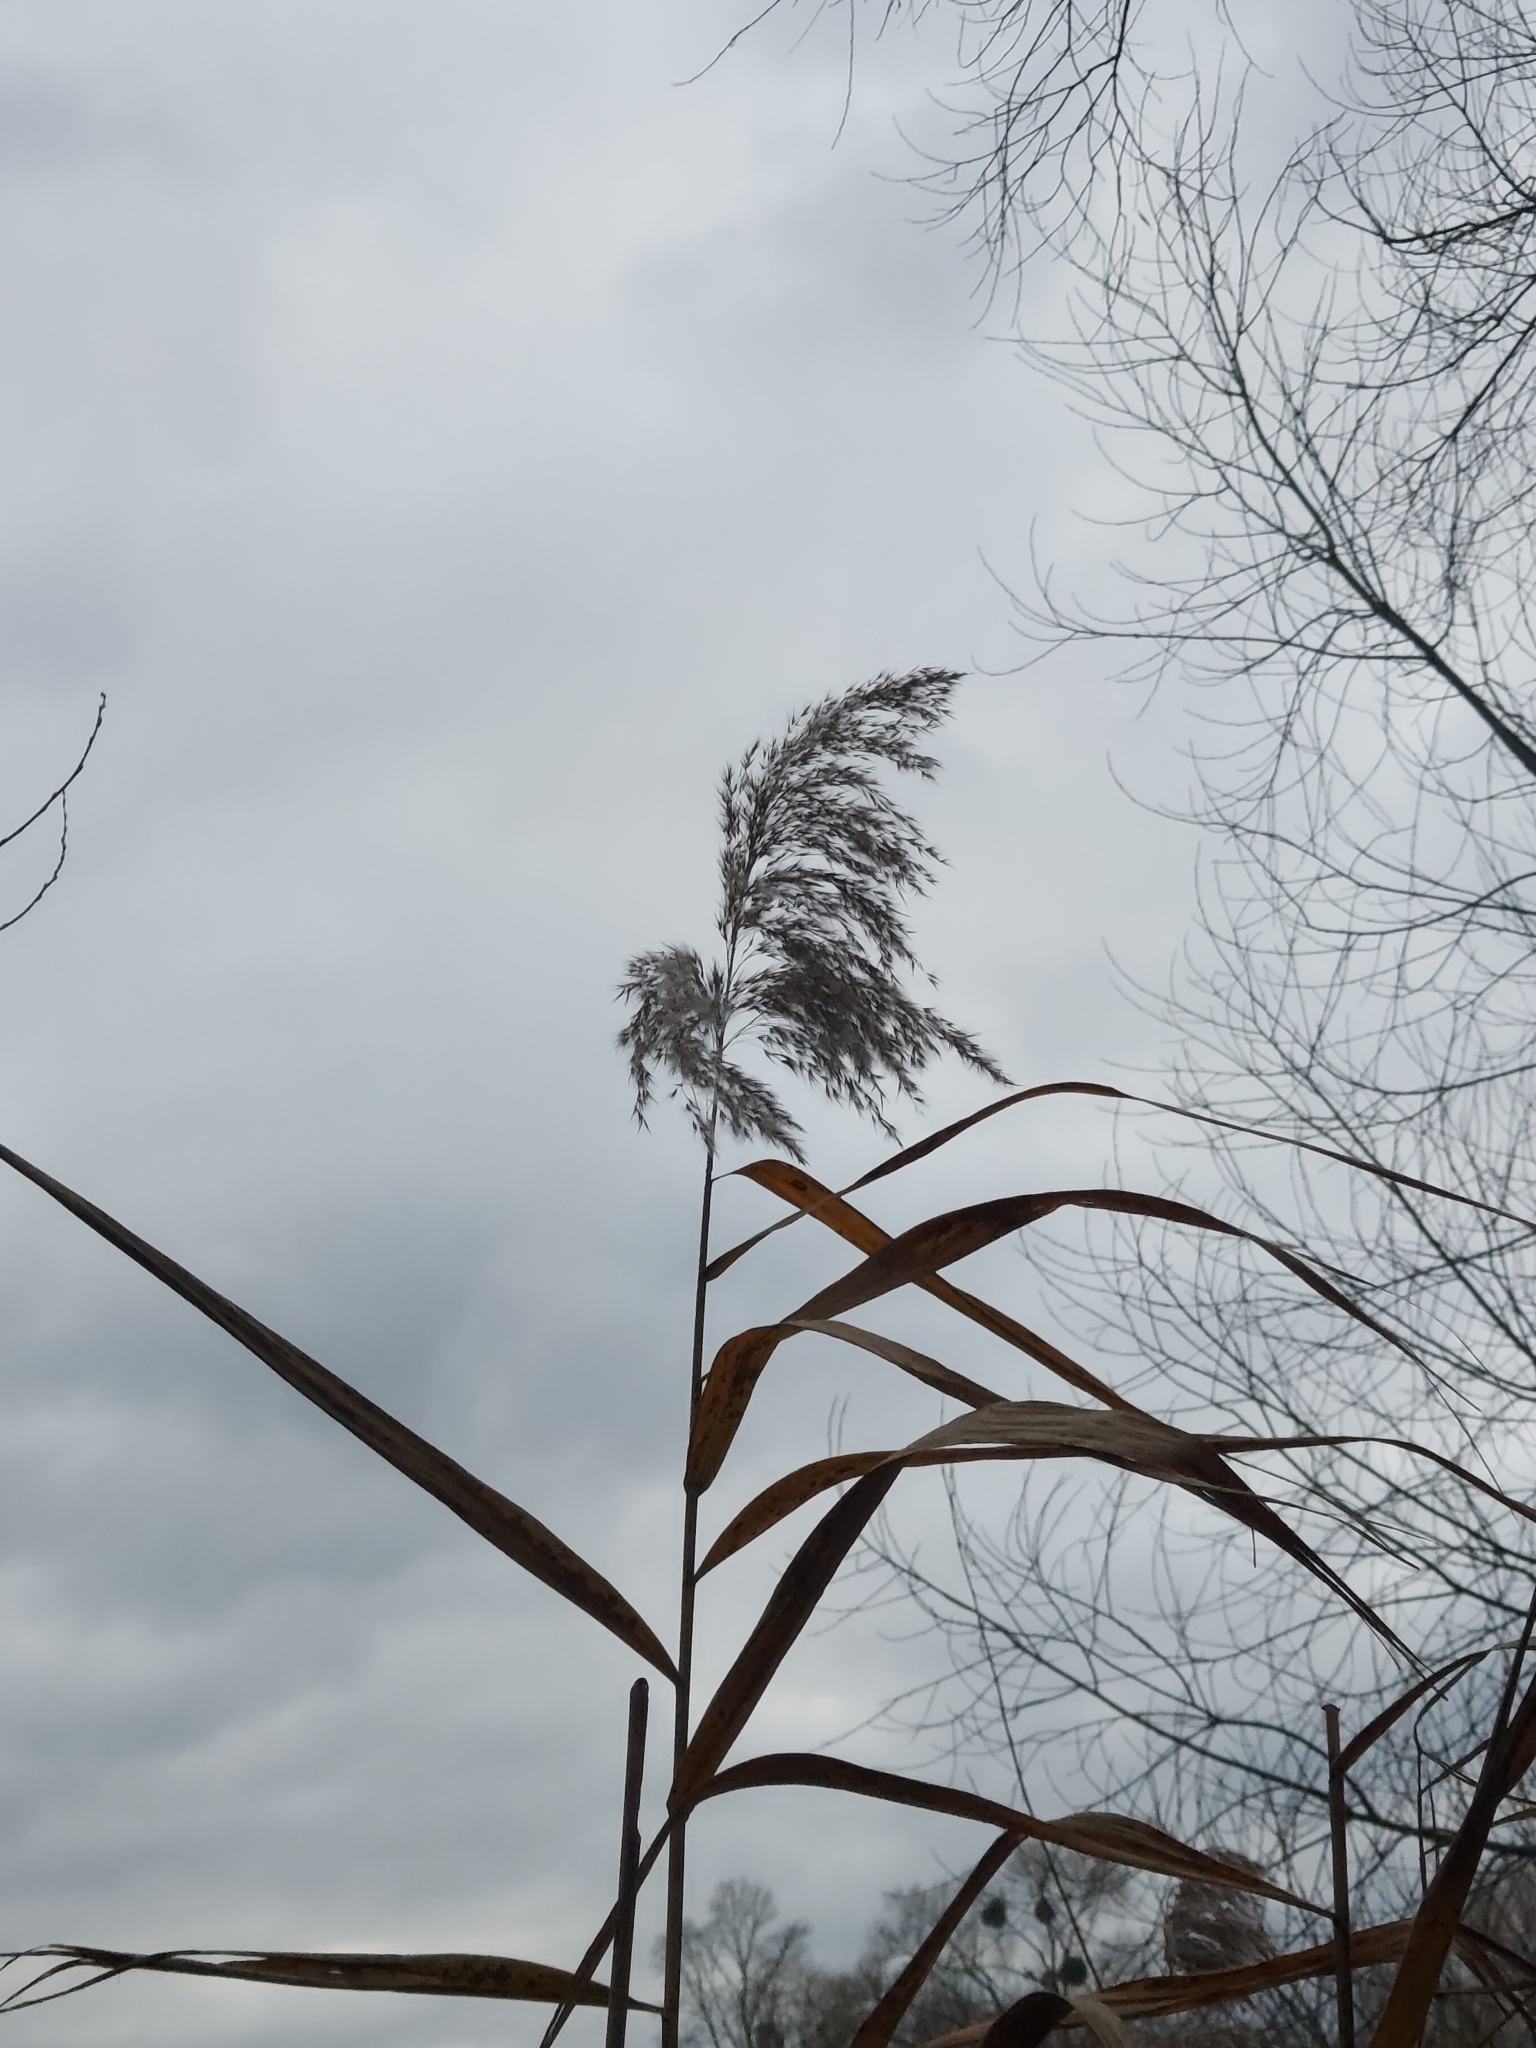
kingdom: Plantae
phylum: Tracheophyta
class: Liliopsida
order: Poales
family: Poaceae
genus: Phragmites
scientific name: Phragmites australis
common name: Common reed
